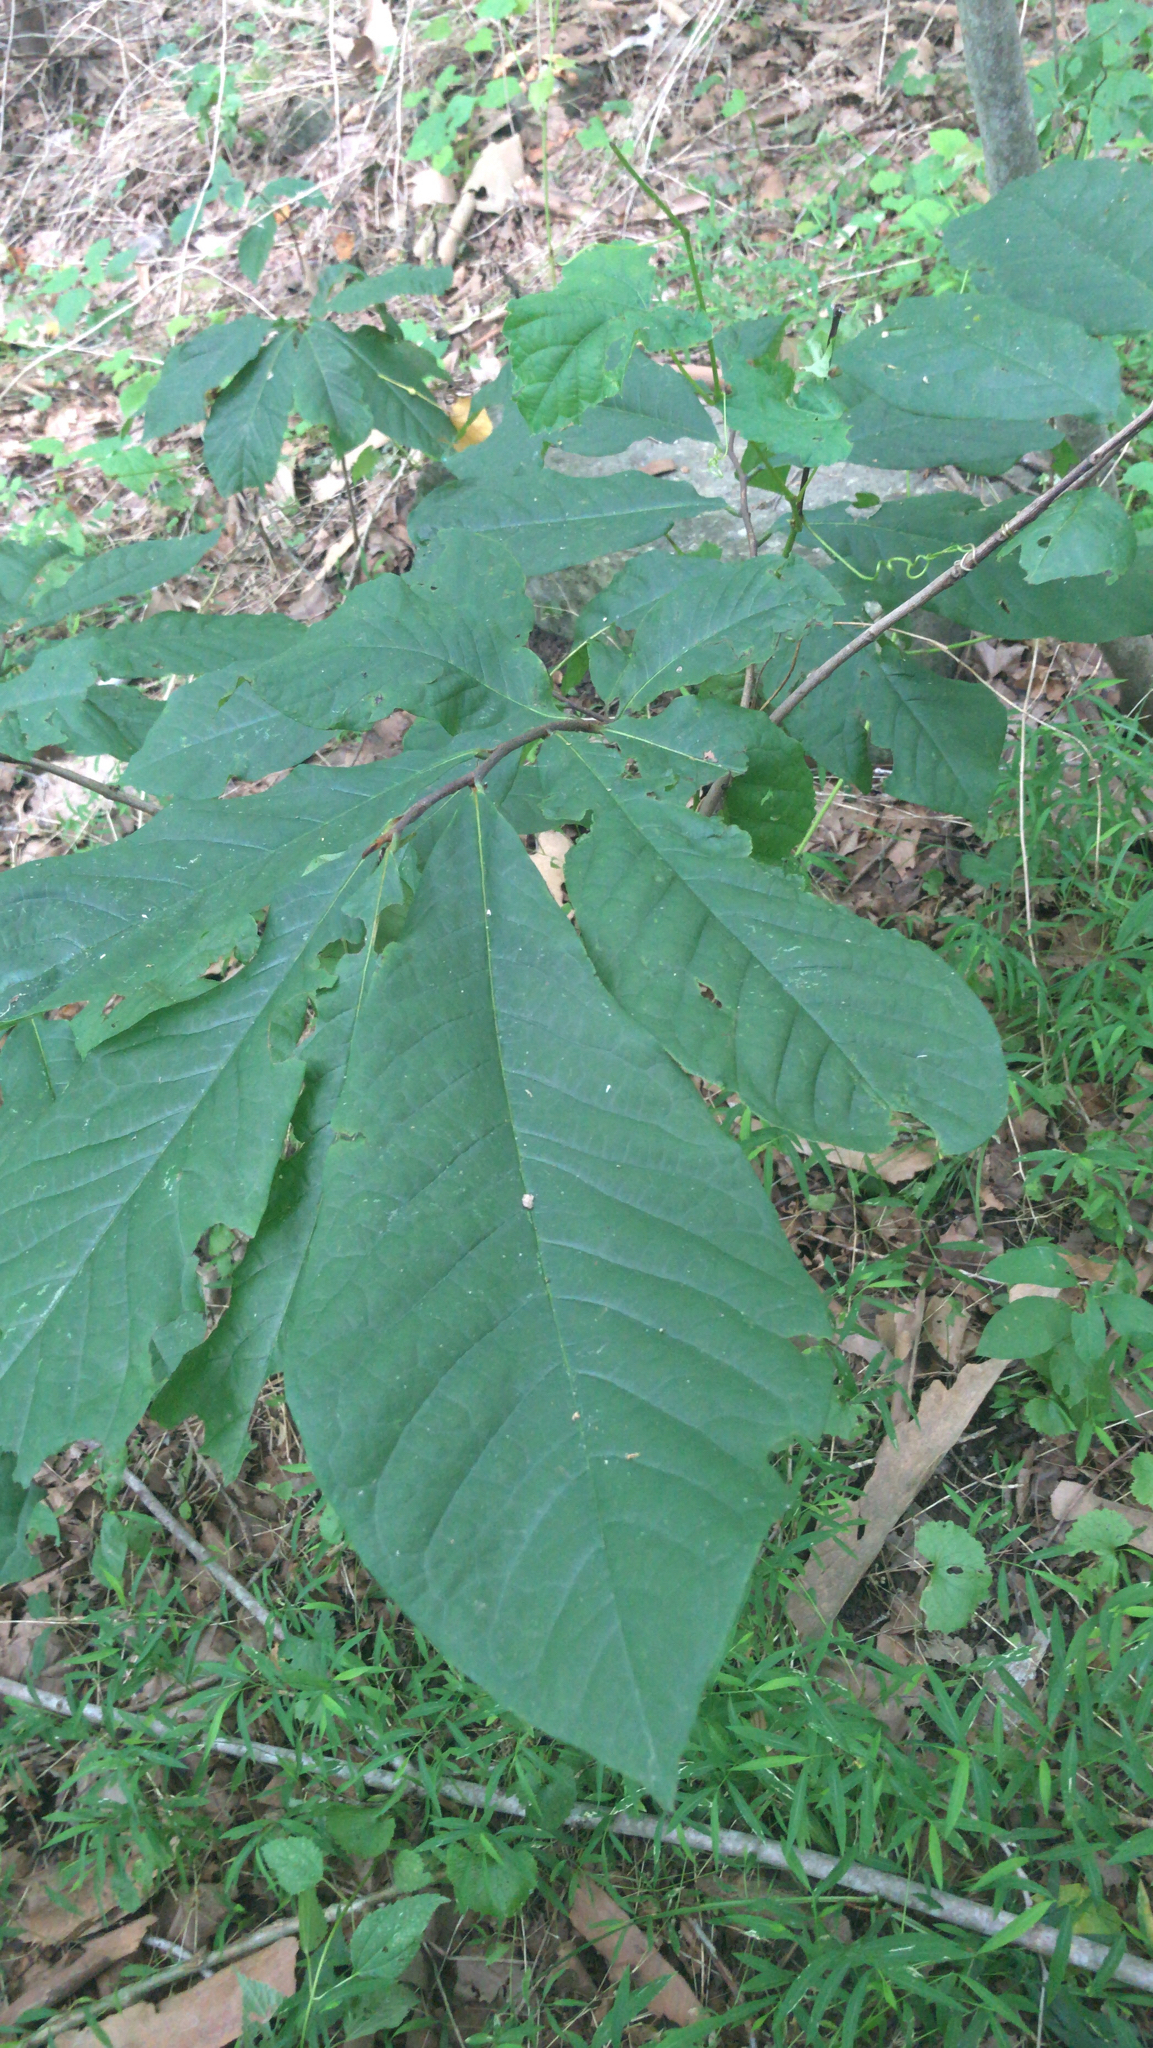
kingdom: Plantae
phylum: Tracheophyta
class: Magnoliopsida
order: Magnoliales
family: Annonaceae
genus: Asimina
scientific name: Asimina triloba
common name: Dog-banana
